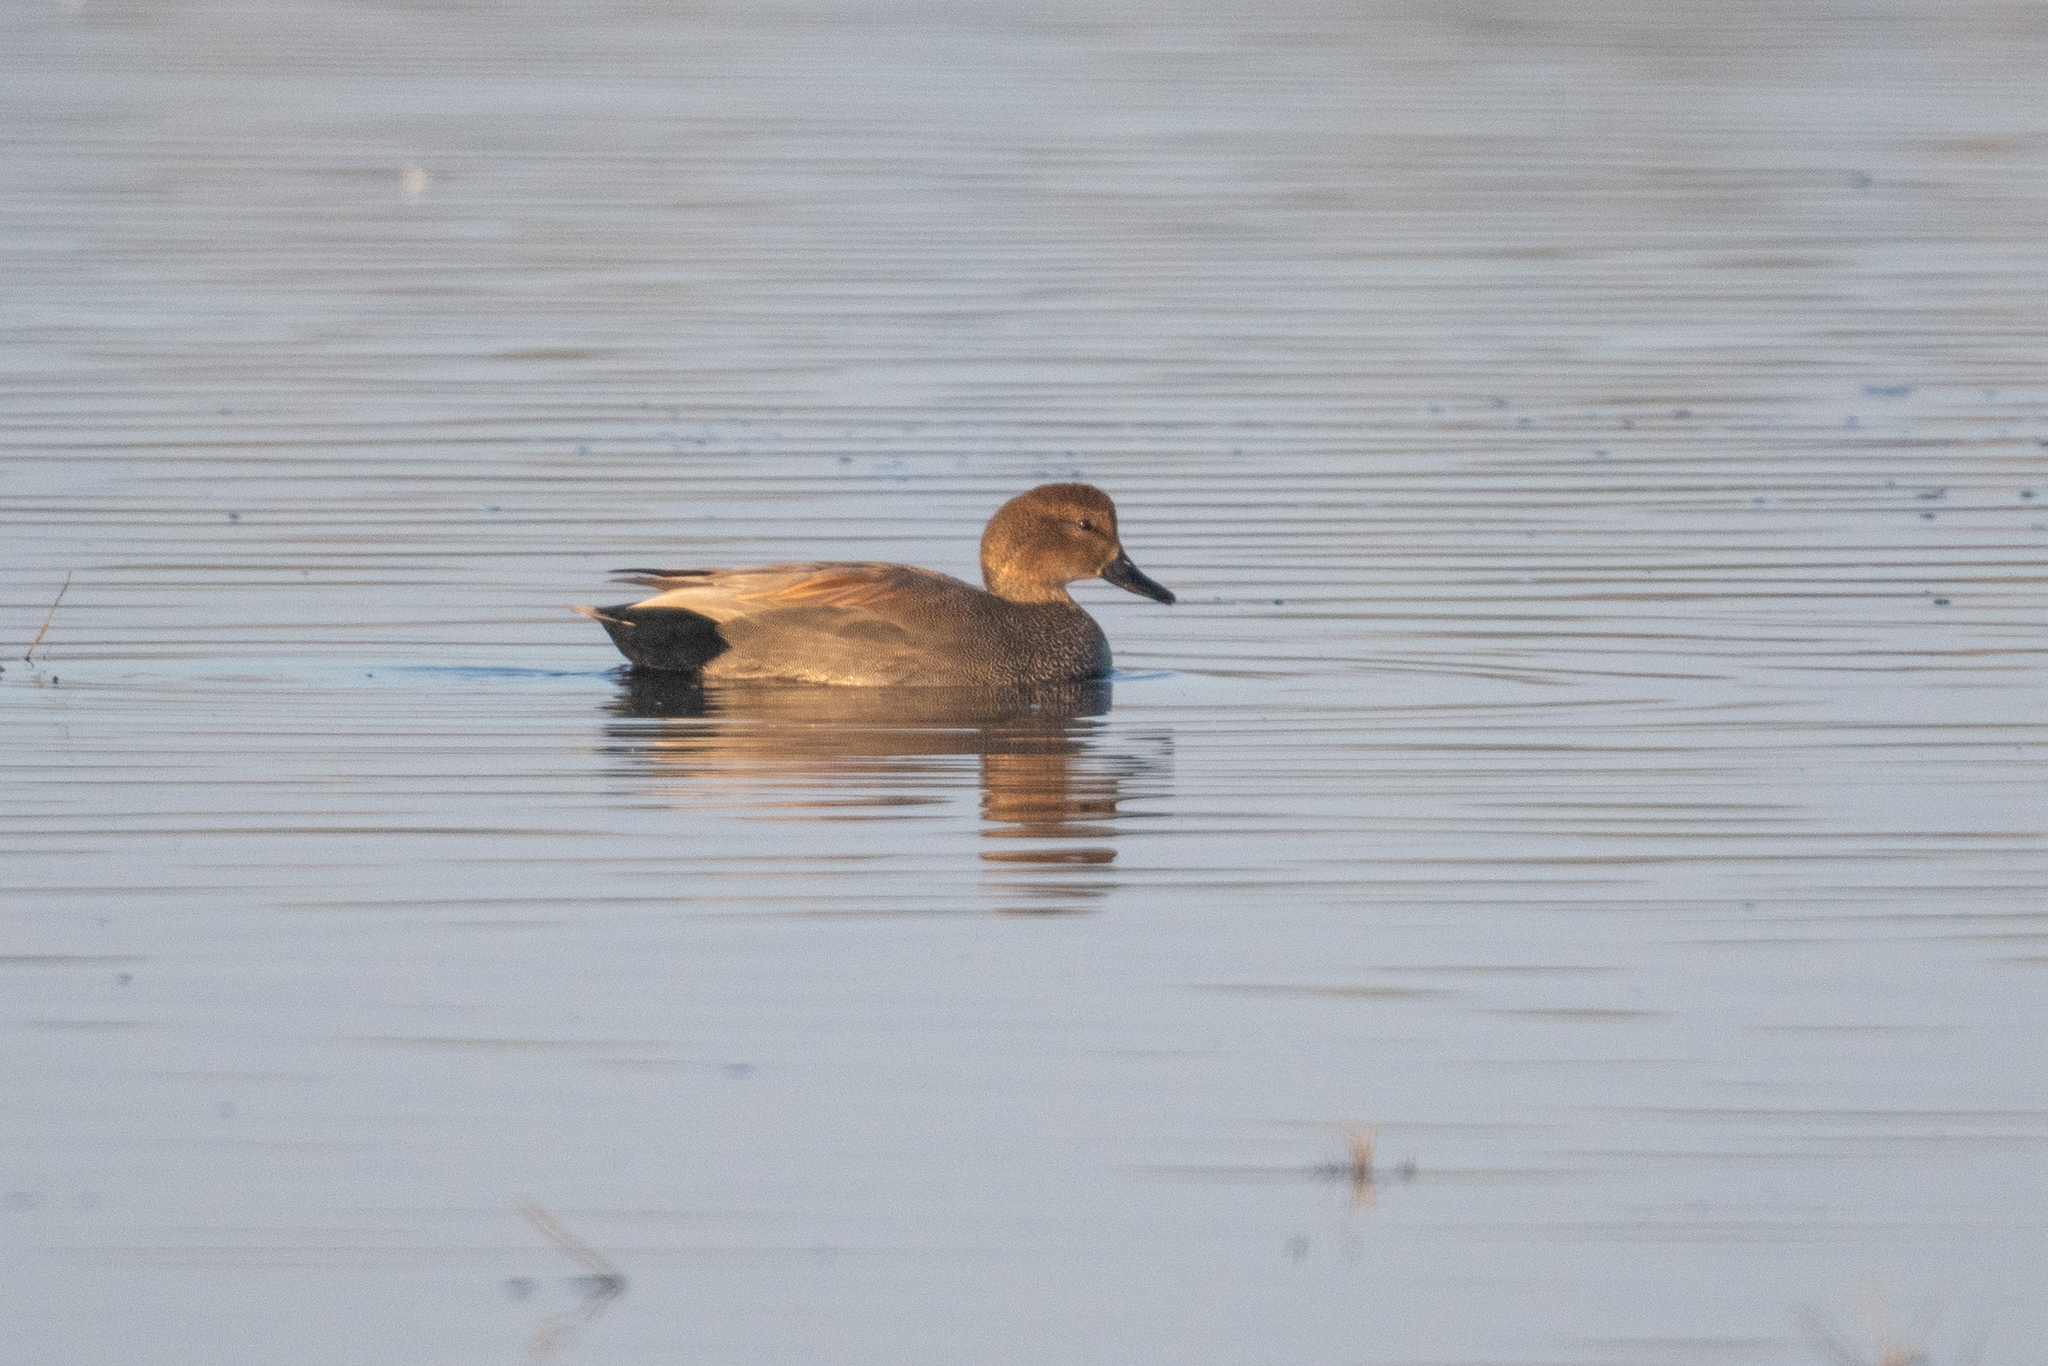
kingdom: Animalia
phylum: Chordata
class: Aves
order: Anseriformes
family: Anatidae
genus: Mareca
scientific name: Mareca strepera
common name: Gadwall
